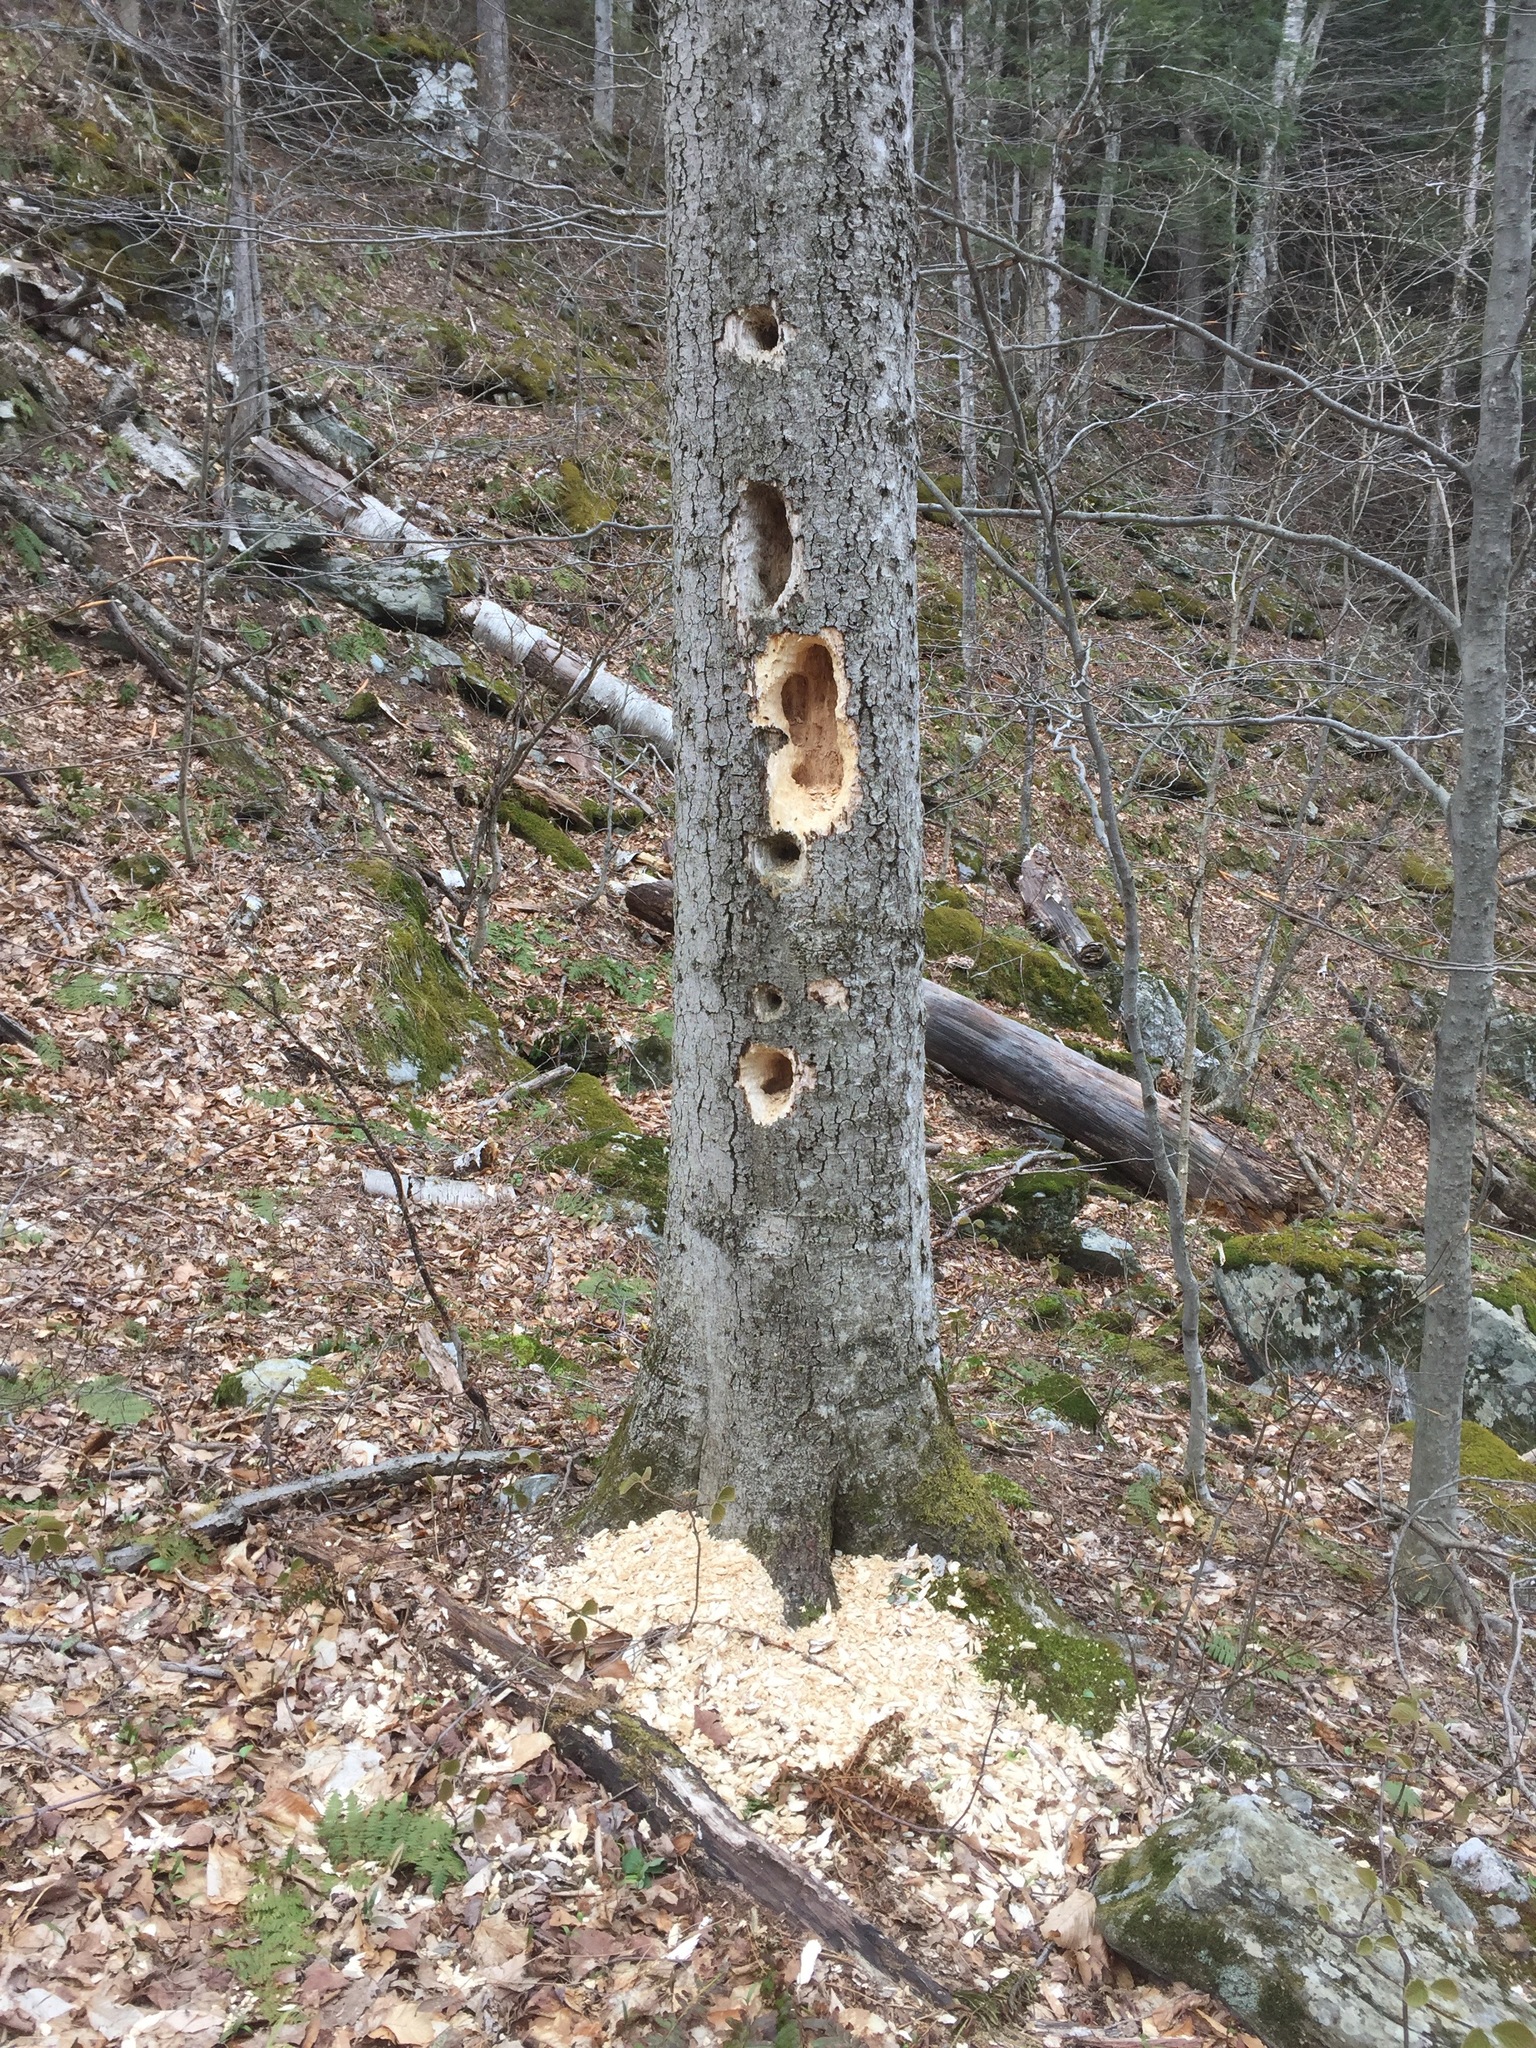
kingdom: Animalia
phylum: Chordata
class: Aves
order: Piciformes
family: Picidae
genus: Dryocopus
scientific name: Dryocopus pileatus
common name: Pileated woodpecker
